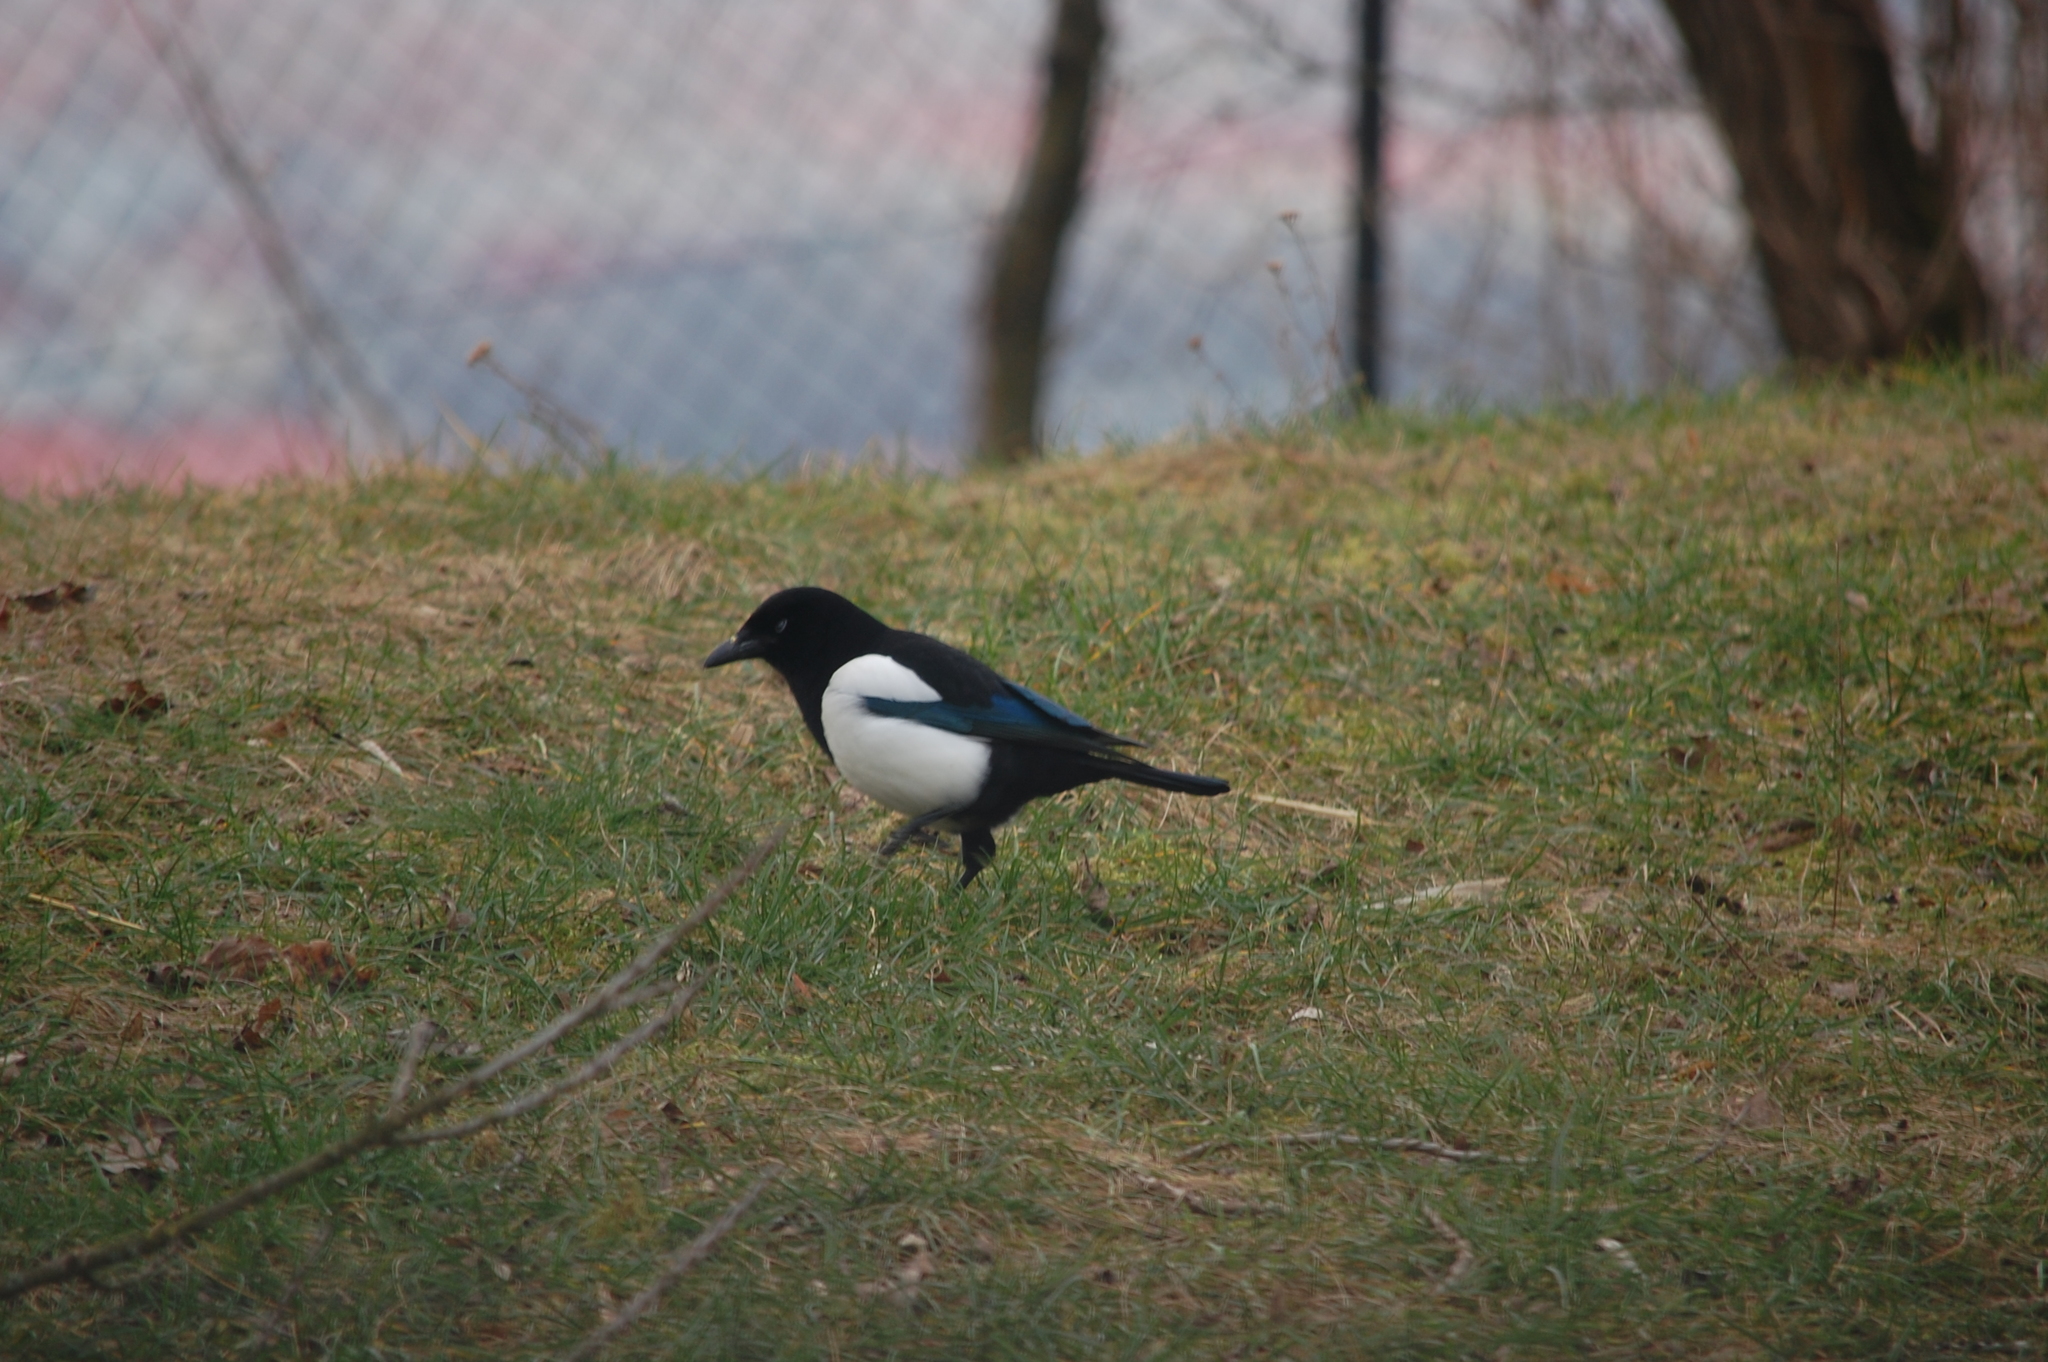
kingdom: Animalia
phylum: Chordata
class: Aves
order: Passeriformes
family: Corvidae
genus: Pica
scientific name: Pica pica
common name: Eurasian magpie
